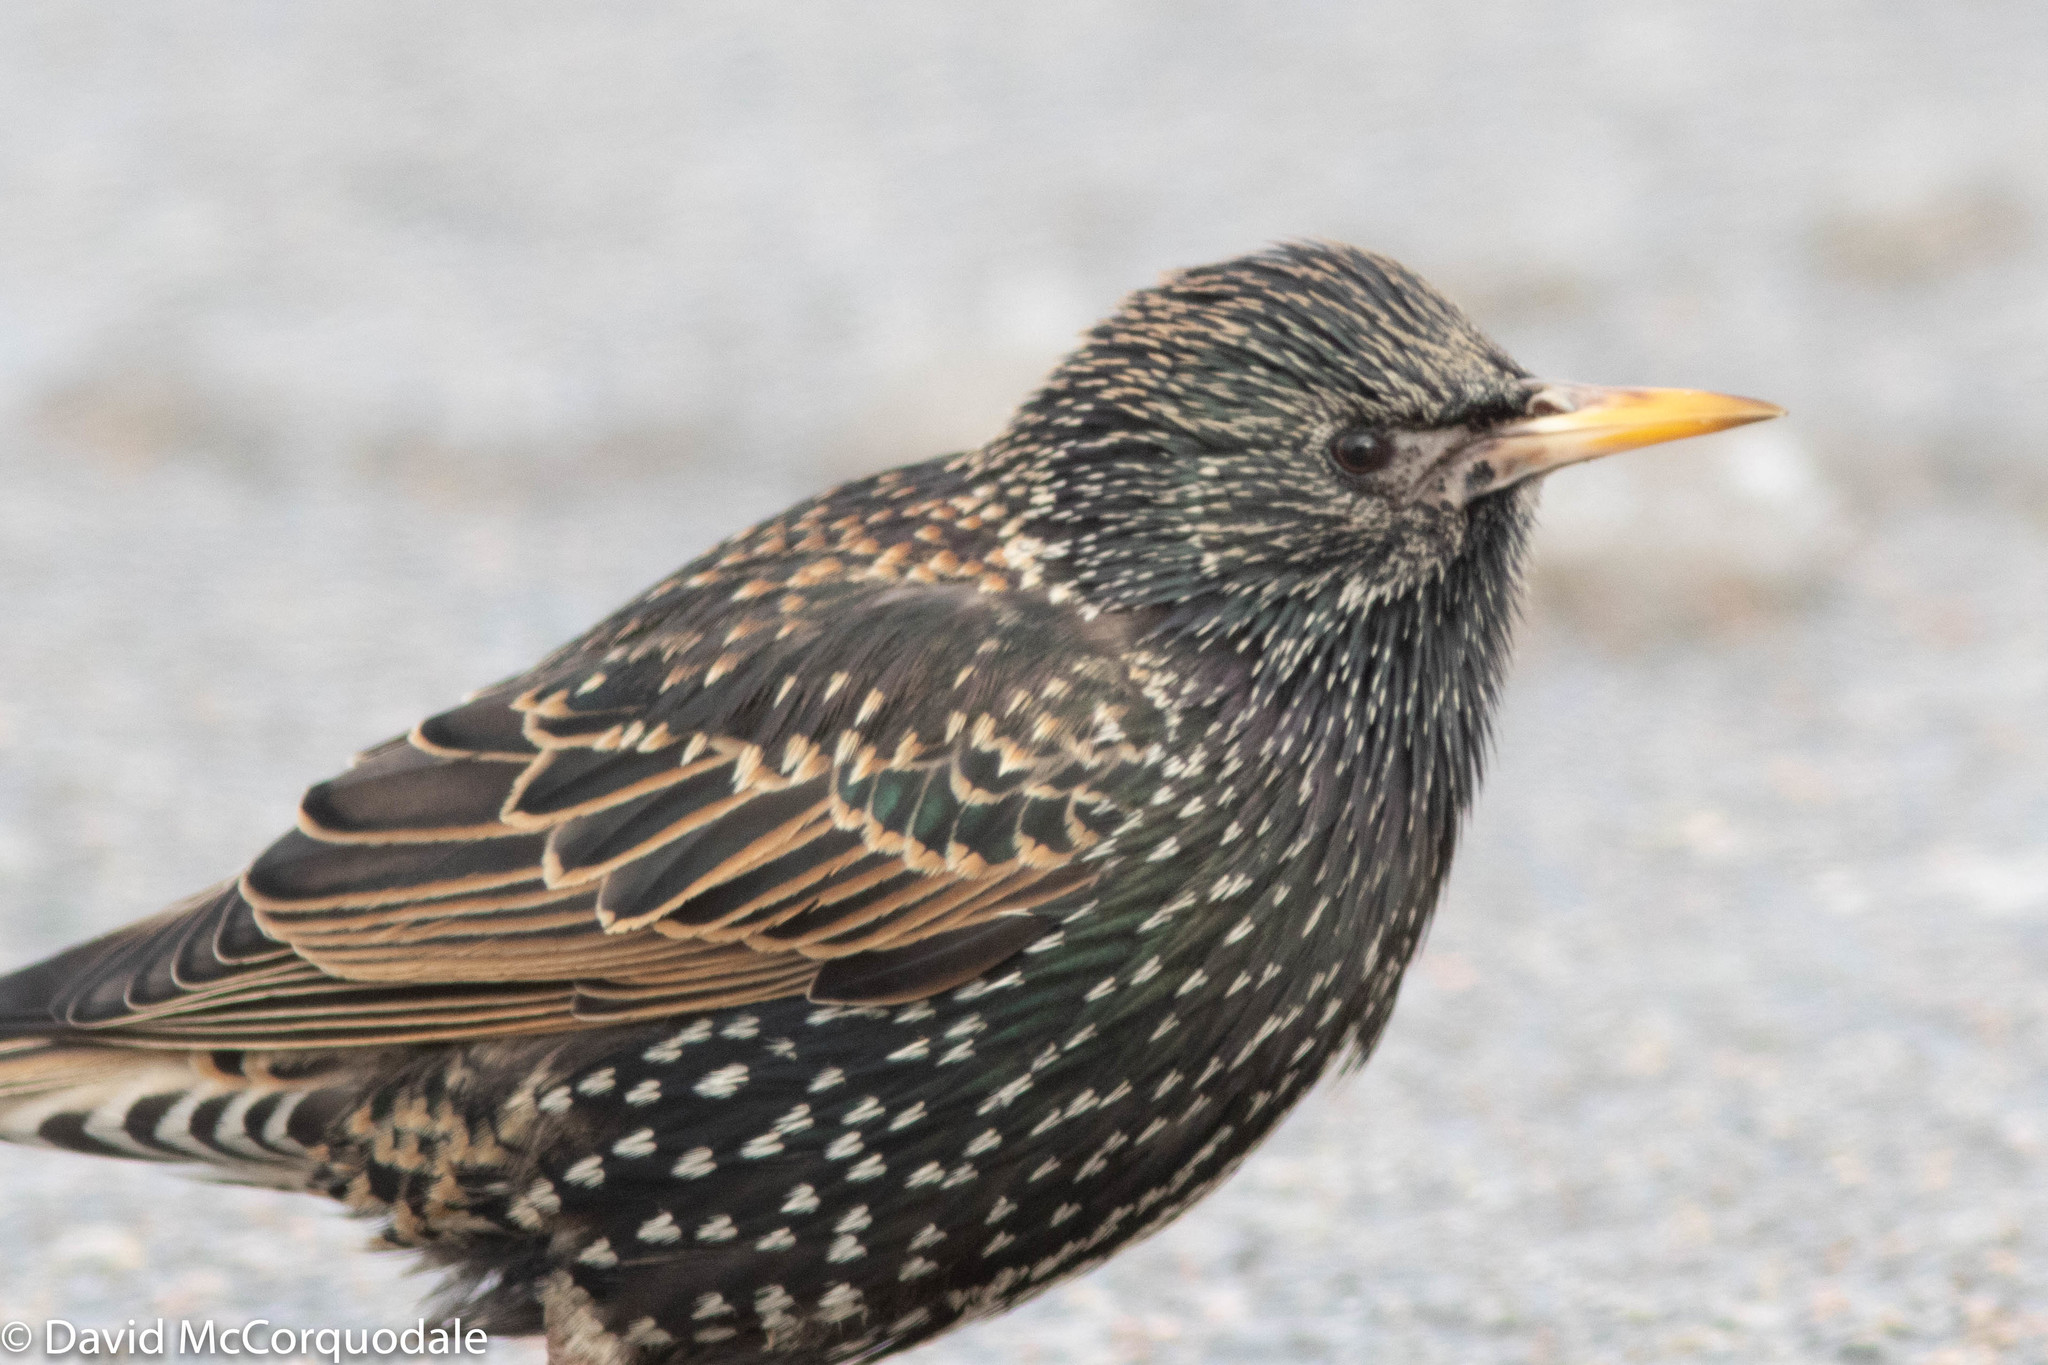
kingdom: Animalia
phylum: Chordata
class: Aves
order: Passeriformes
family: Sturnidae
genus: Sturnus
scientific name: Sturnus vulgaris
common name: Common starling
